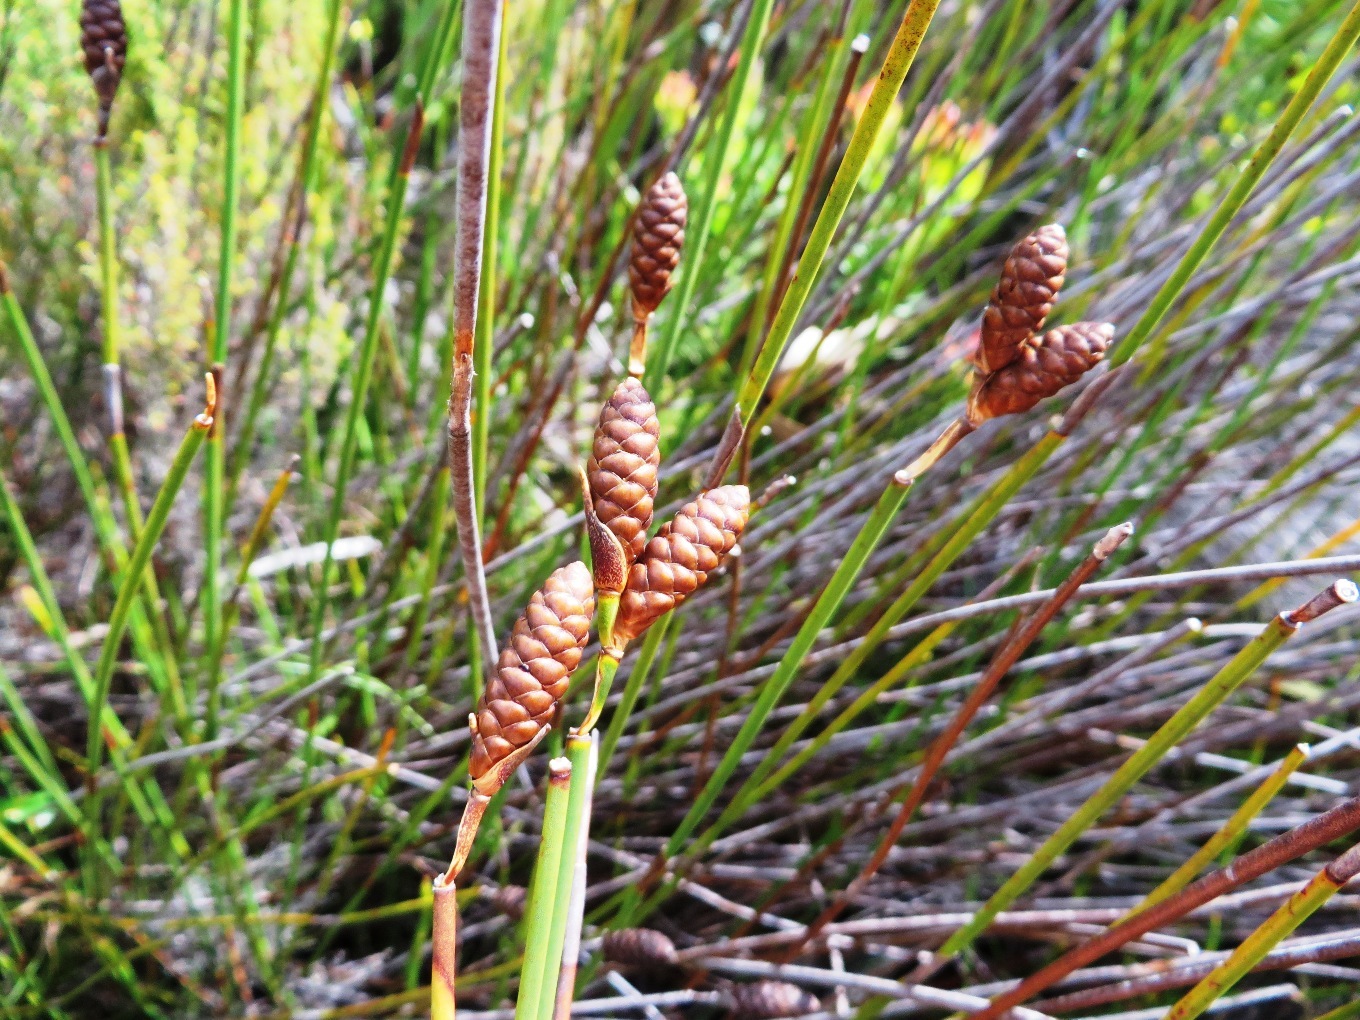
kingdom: Plantae
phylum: Tracheophyta
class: Liliopsida
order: Poales
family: Restionaceae
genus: Nevillea
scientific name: Nevillea obtusissimus
